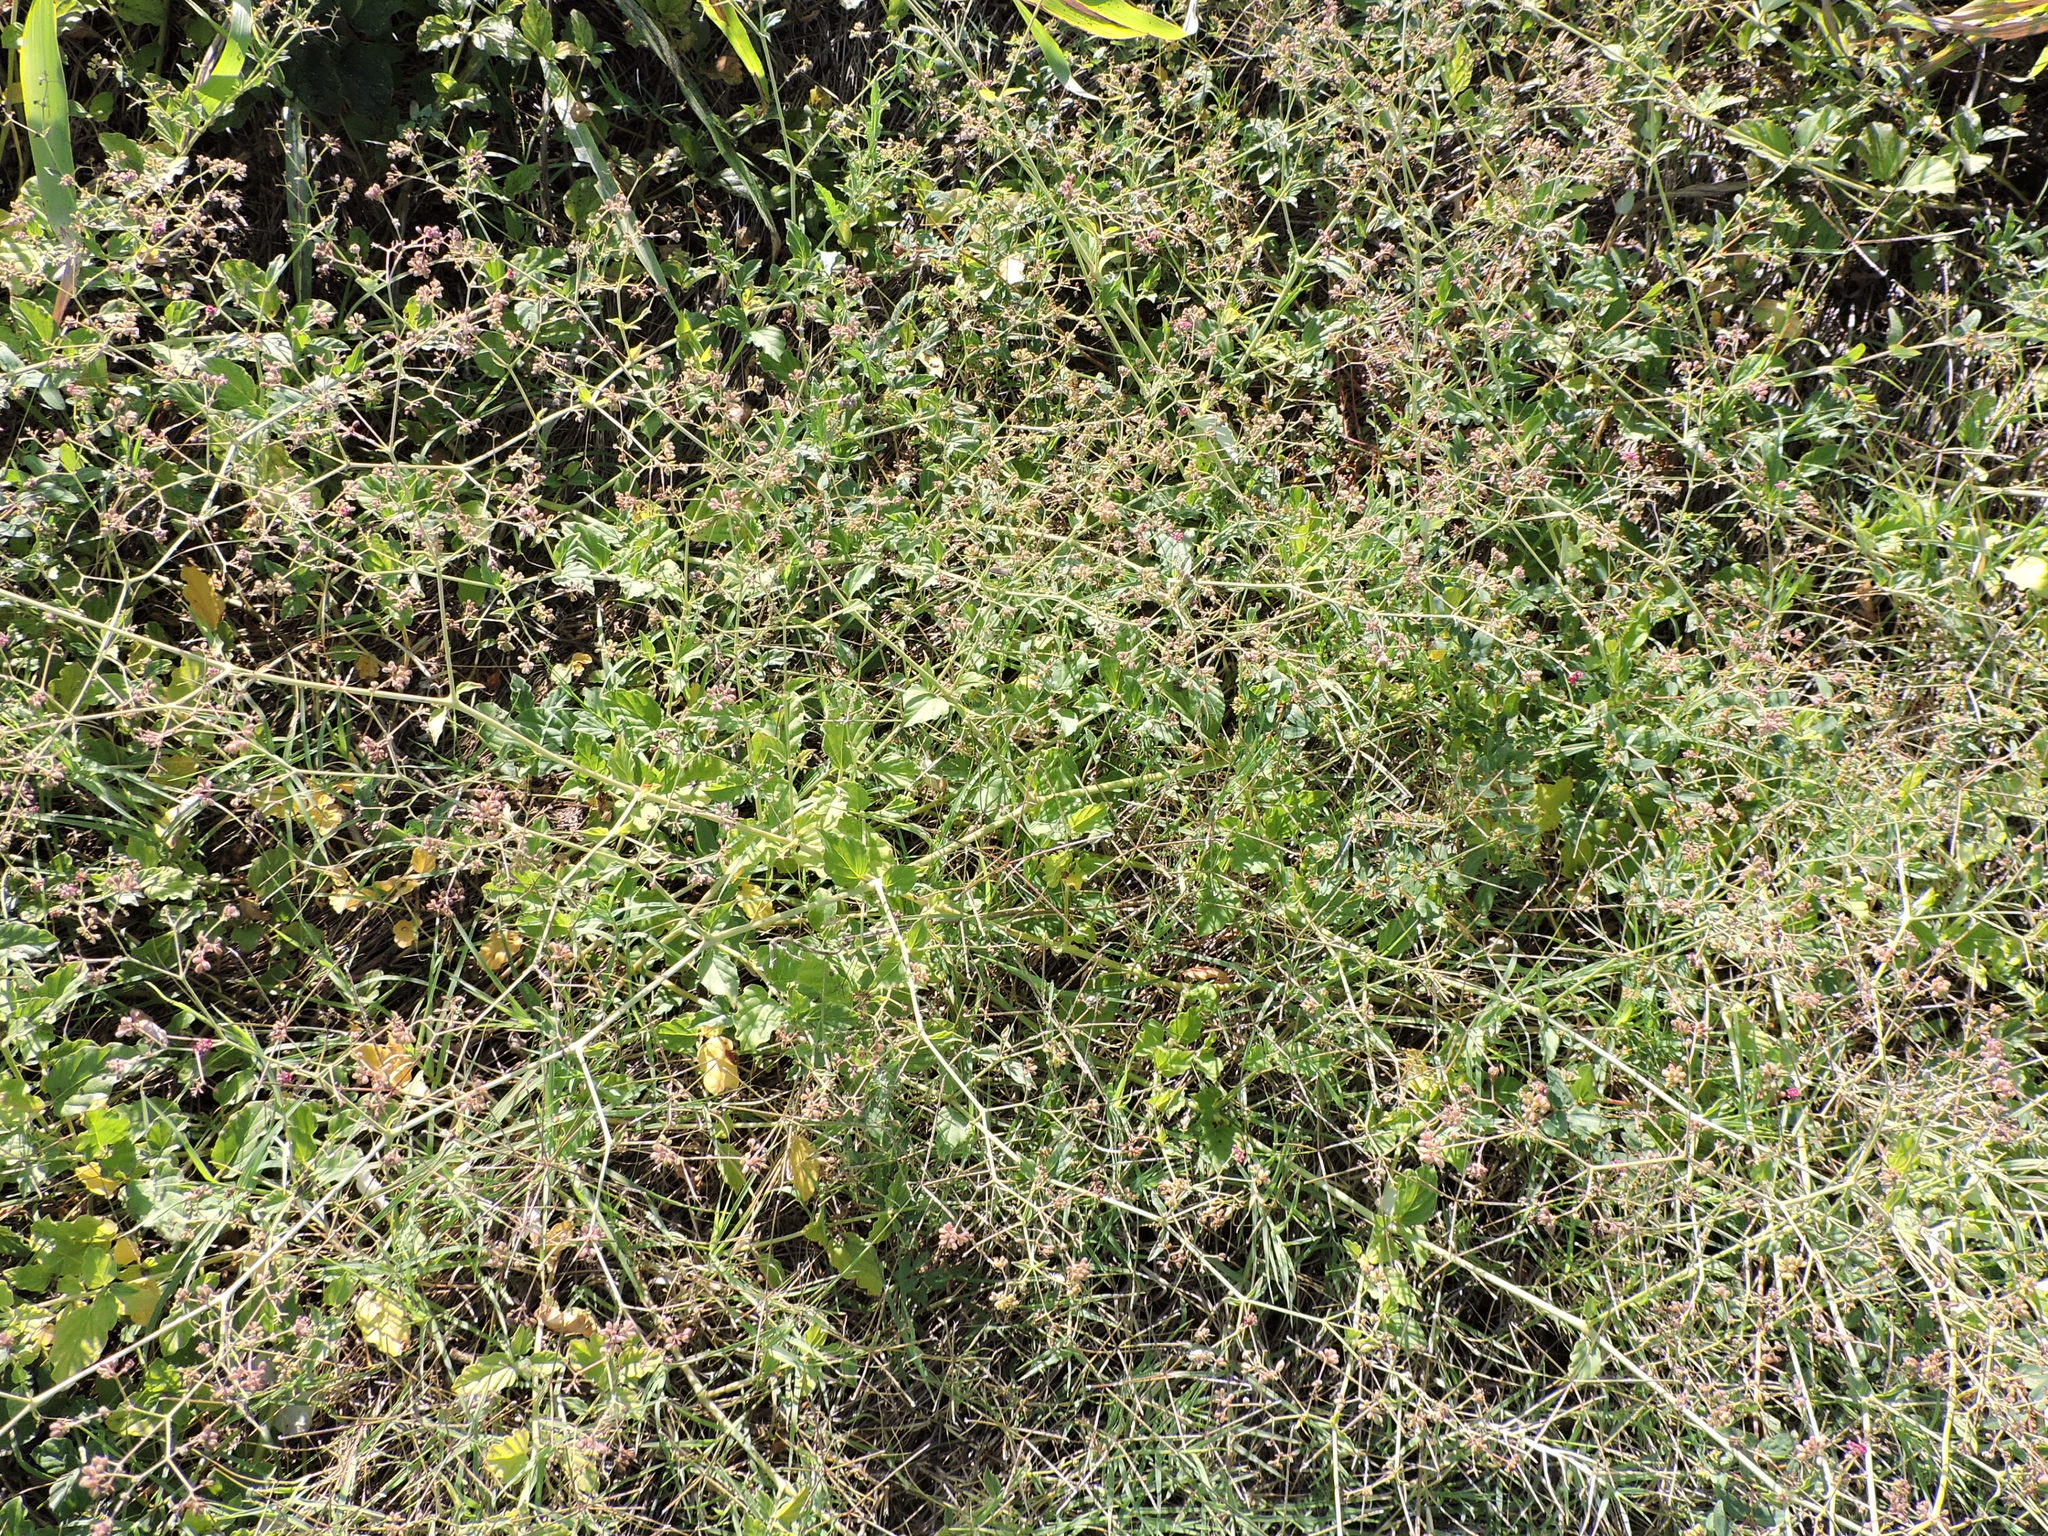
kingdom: Plantae
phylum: Tracheophyta
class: Magnoliopsida
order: Caryophyllales
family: Nyctaginaceae
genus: Boerhavia
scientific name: Boerhavia coccinea
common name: Scarlet spiderling
